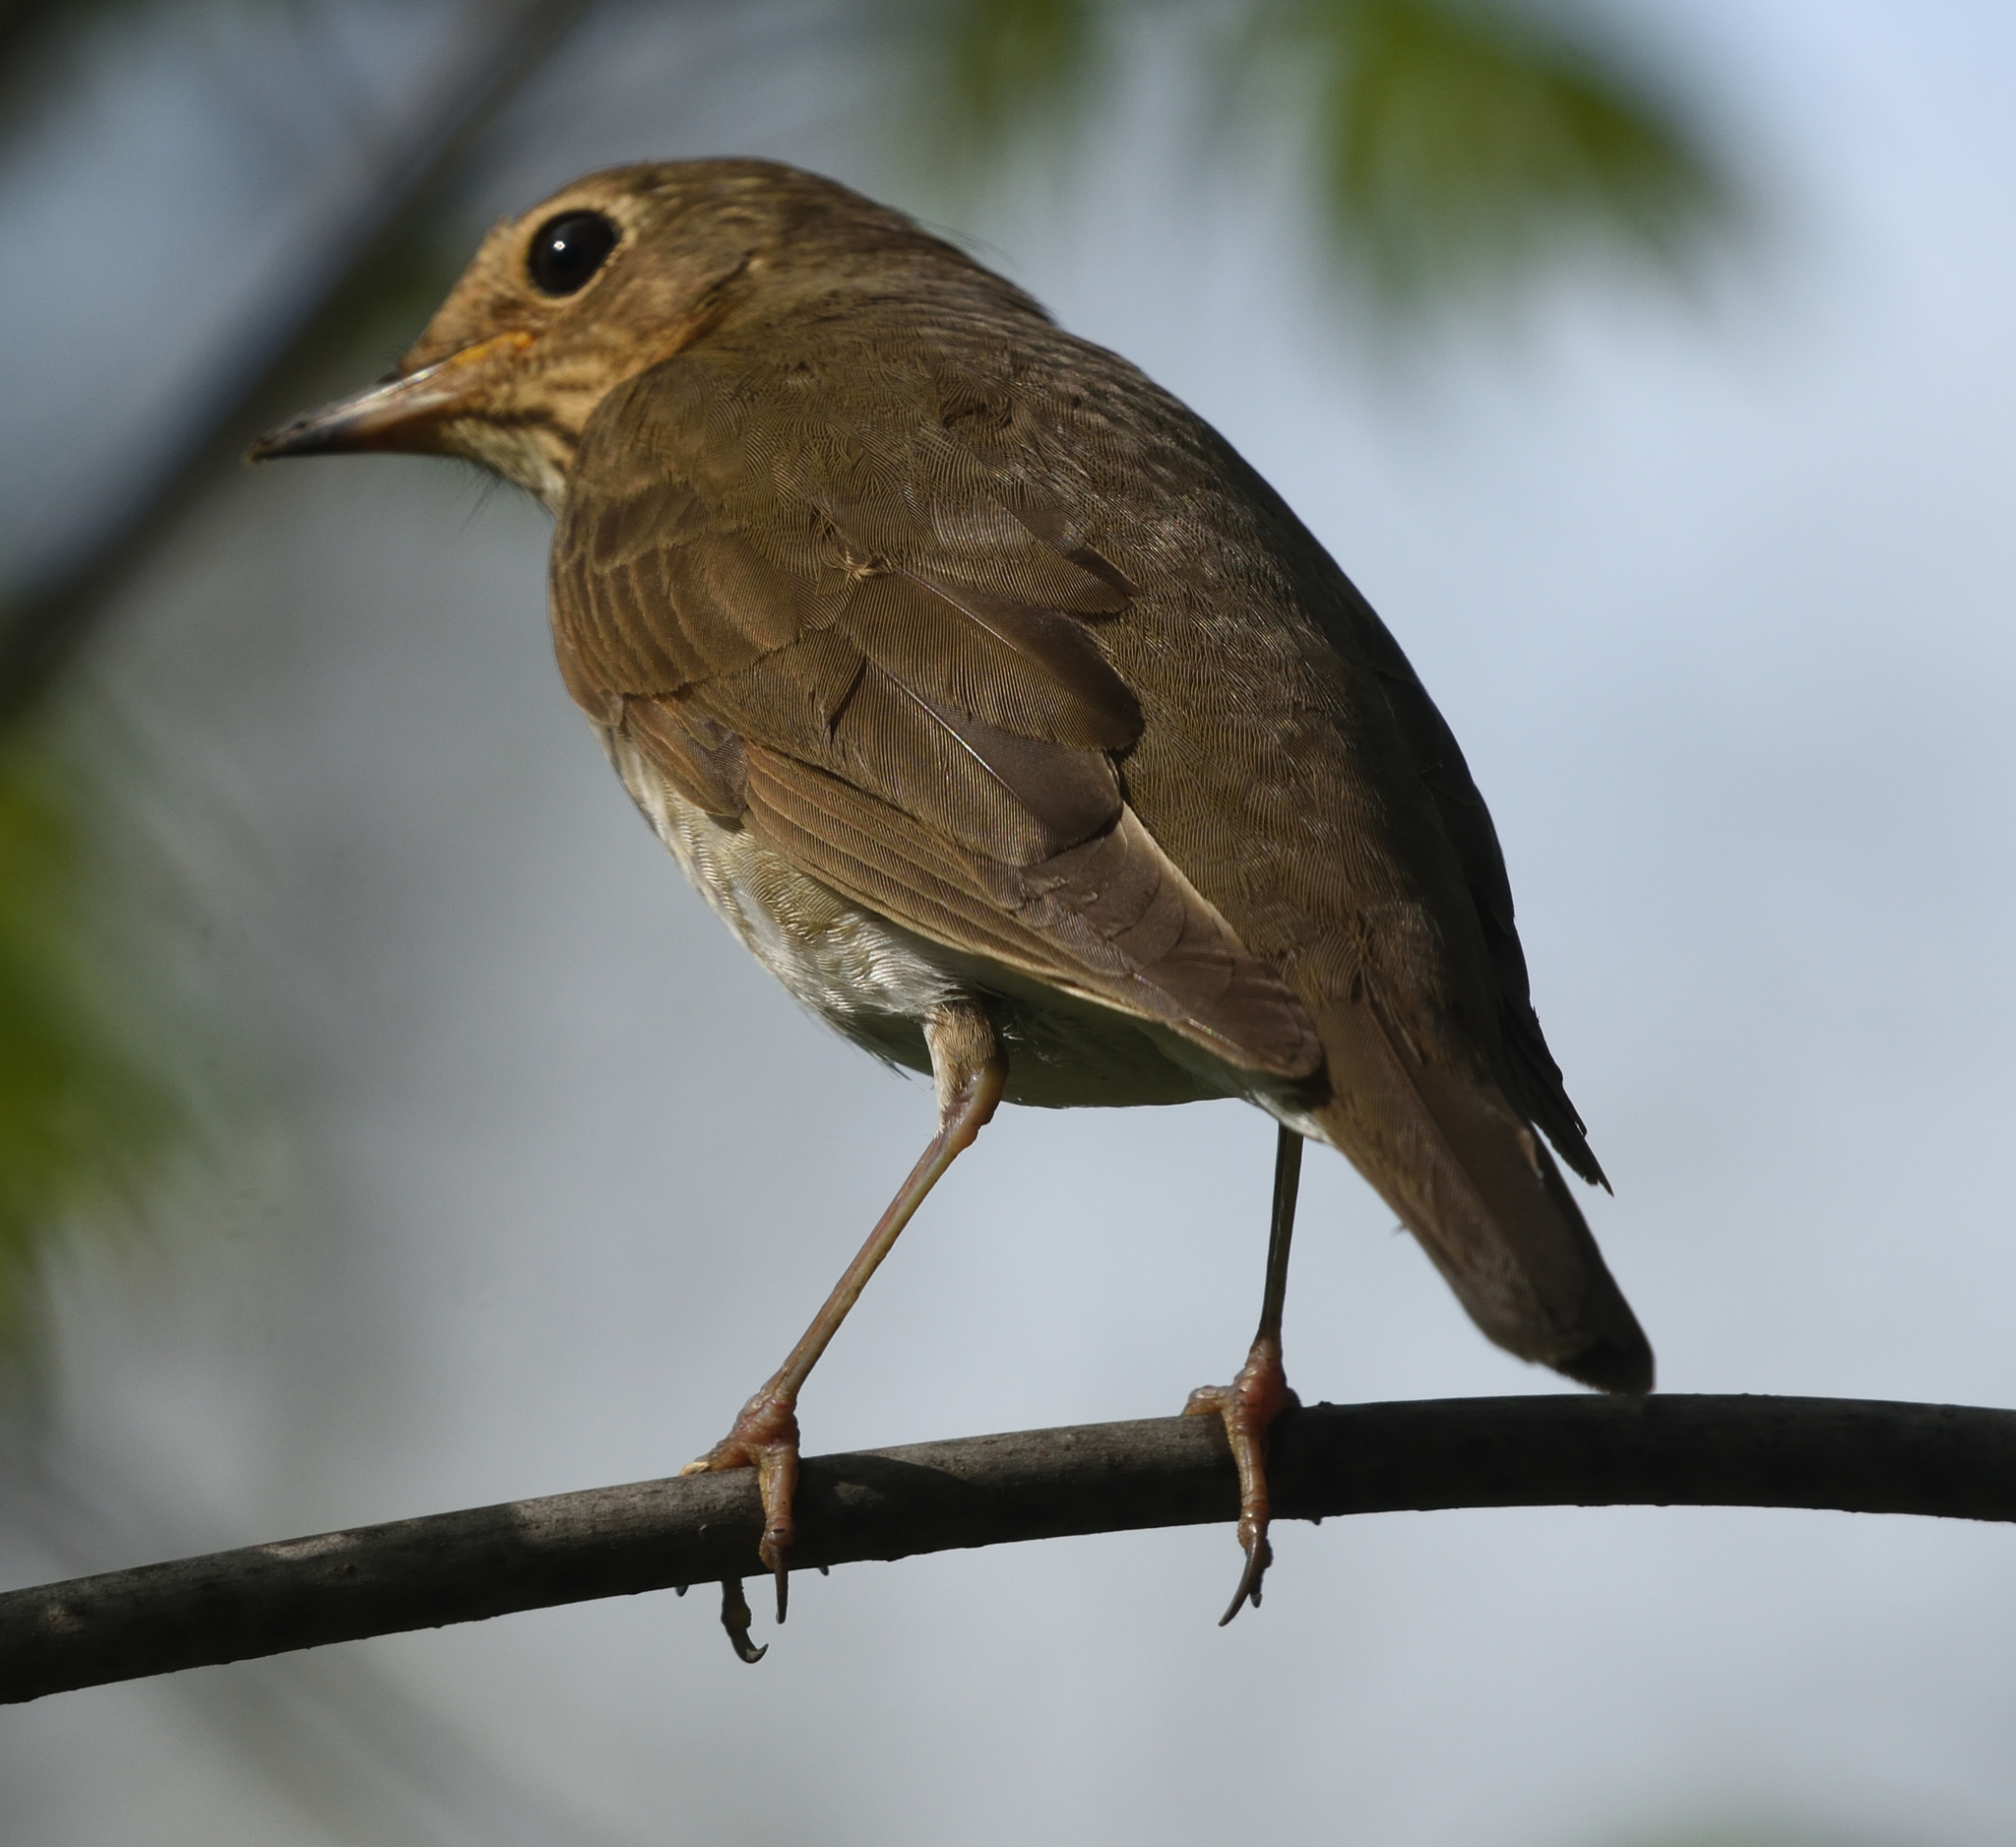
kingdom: Animalia
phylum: Chordata
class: Aves
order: Passeriformes
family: Turdidae
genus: Catharus
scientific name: Catharus ustulatus
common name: Swainson's thrush
